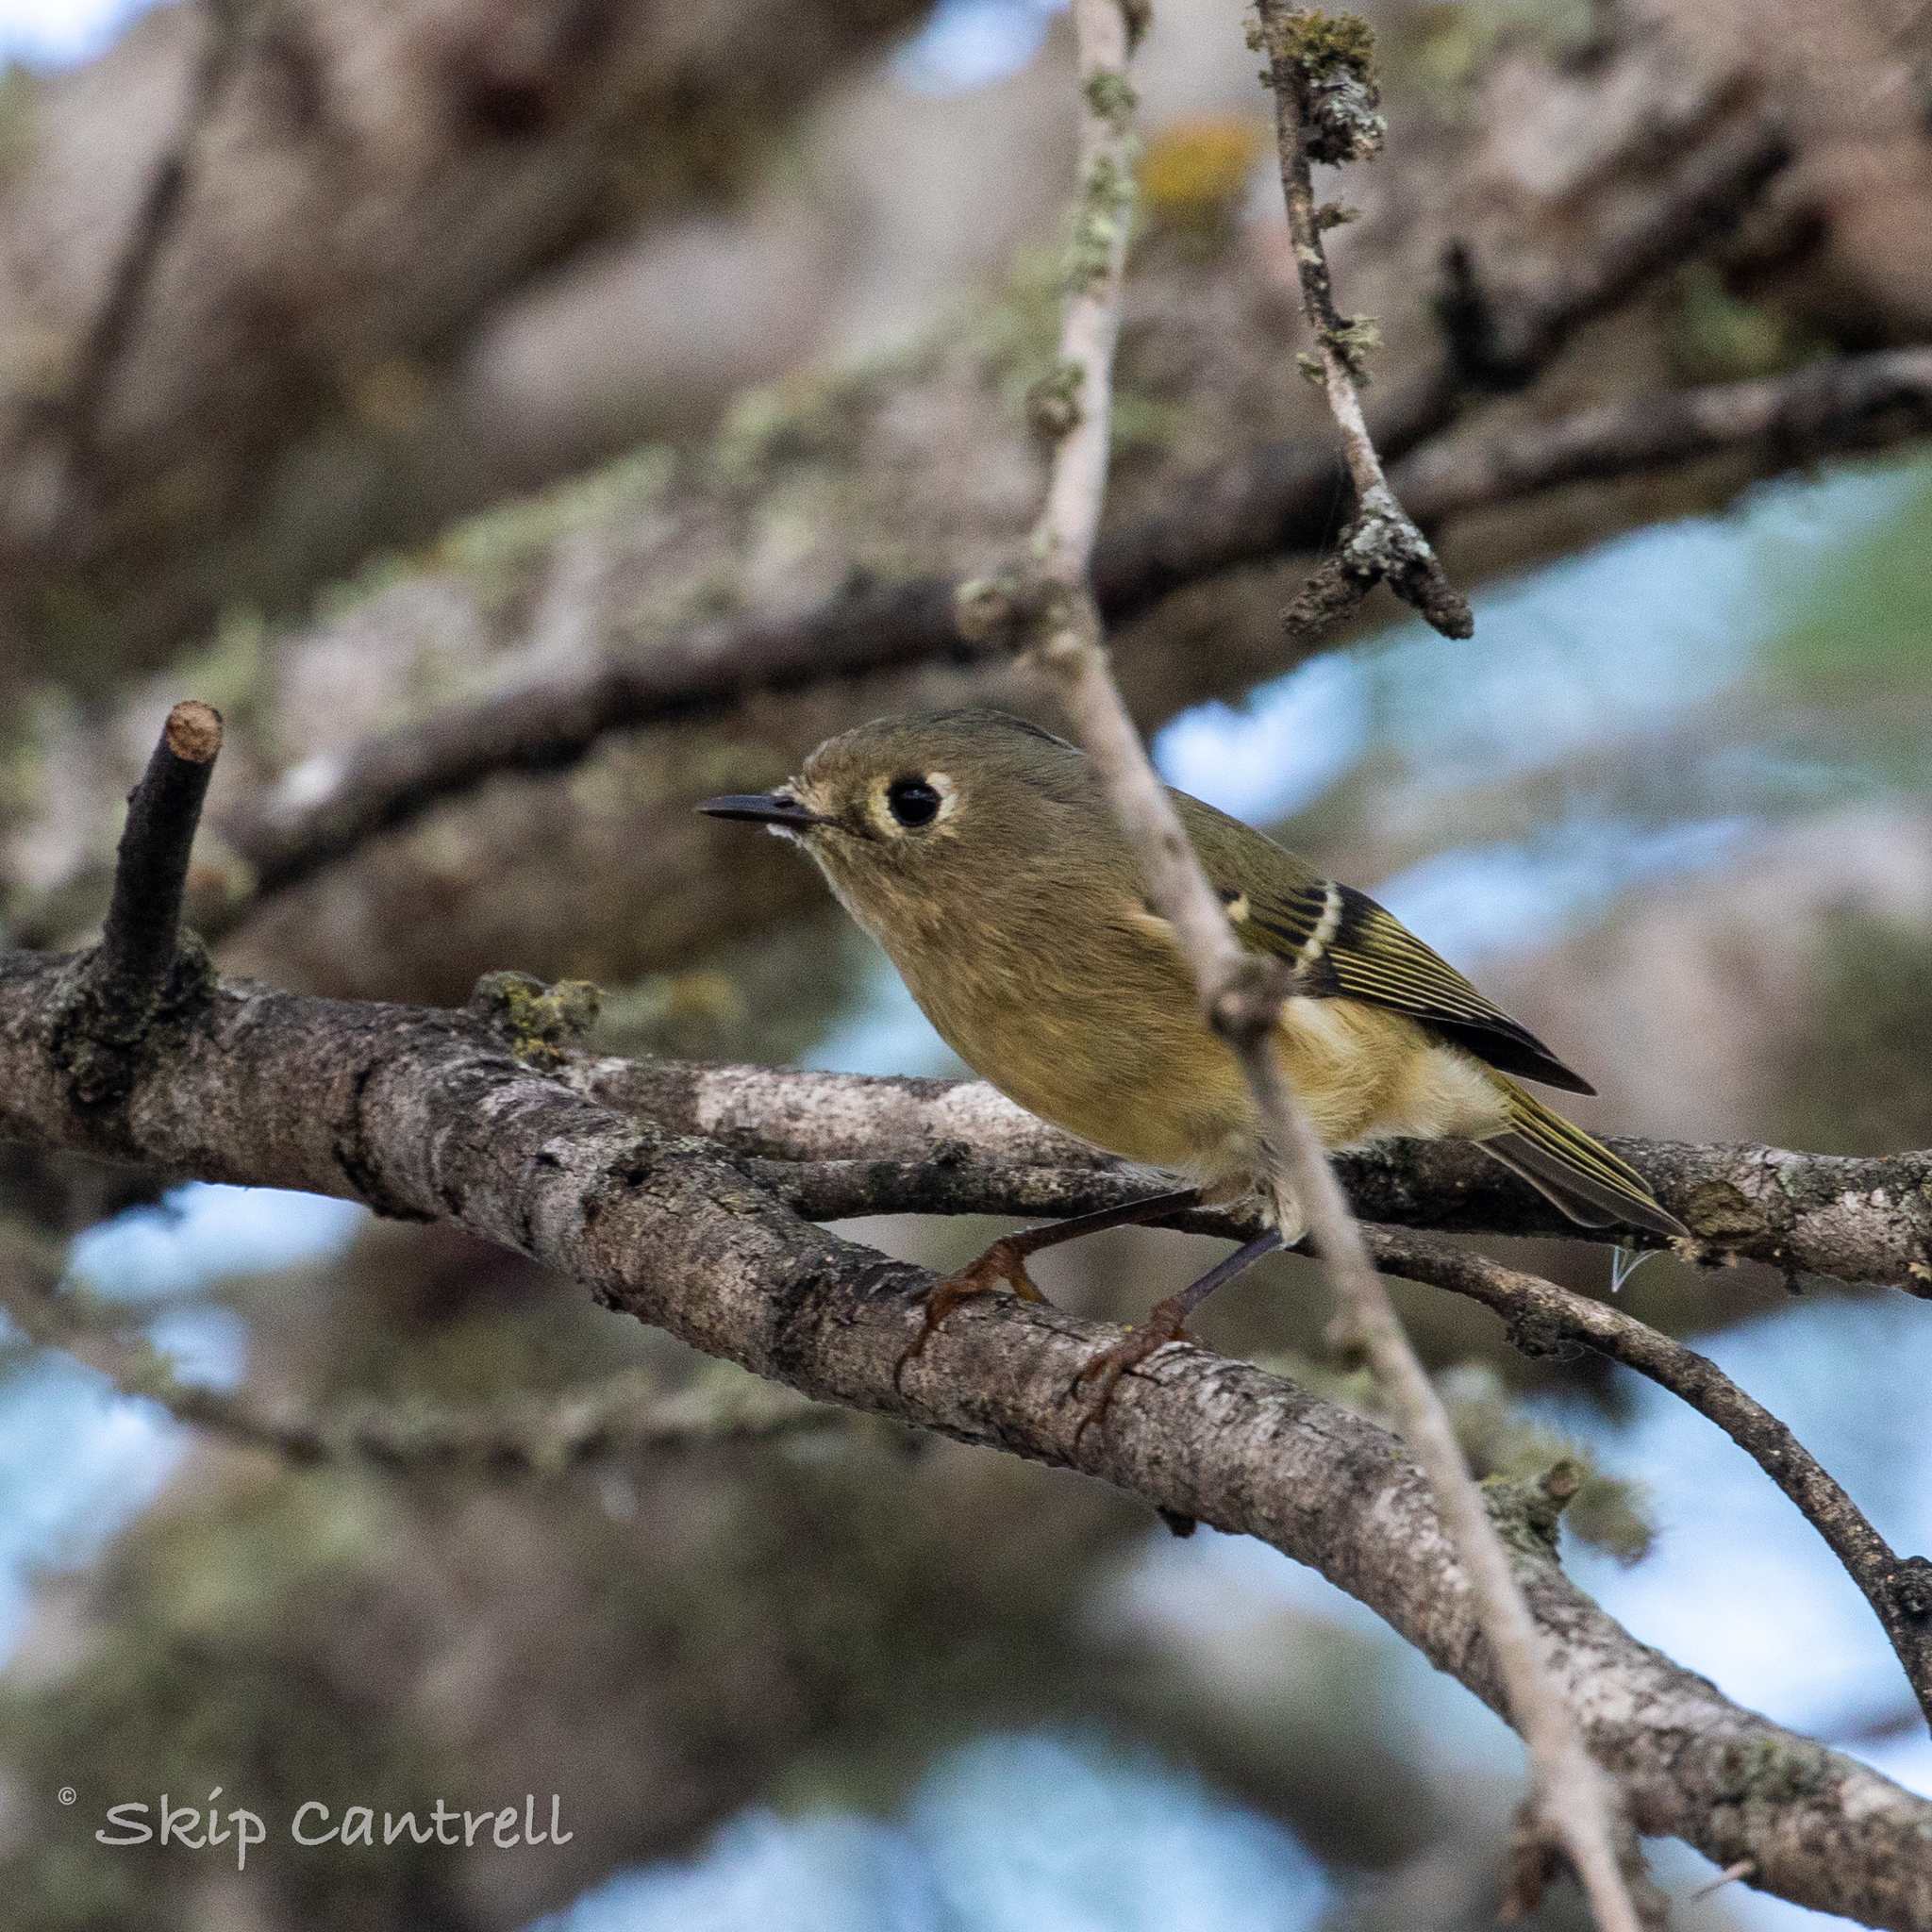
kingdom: Animalia
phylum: Chordata
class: Aves
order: Passeriformes
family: Regulidae
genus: Regulus
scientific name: Regulus calendula
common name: Ruby-crowned kinglet
